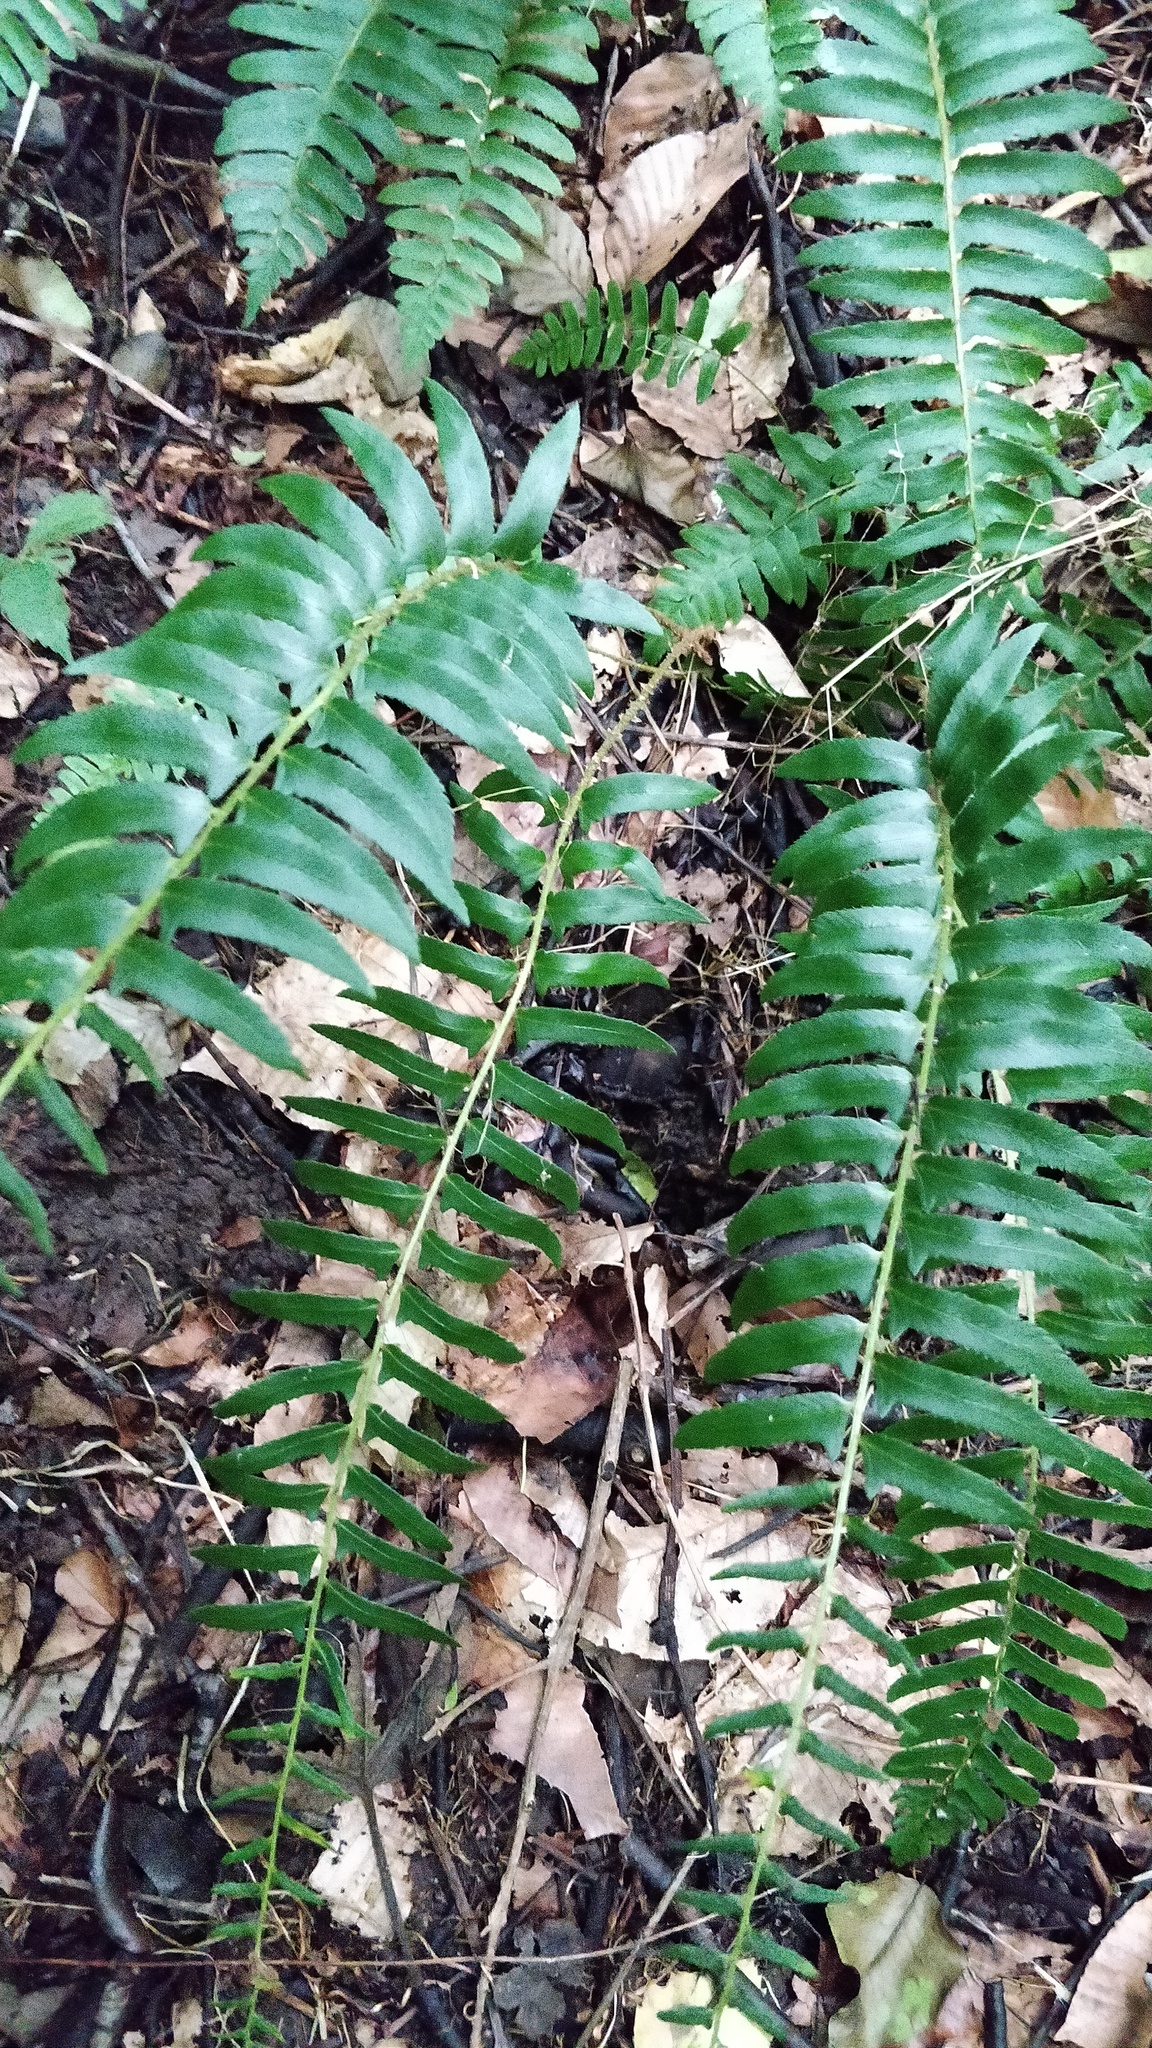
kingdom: Plantae
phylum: Tracheophyta
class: Polypodiopsida
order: Polypodiales
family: Dryopteridaceae
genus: Polystichum
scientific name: Polystichum acrostichoides
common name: Christmas fern
